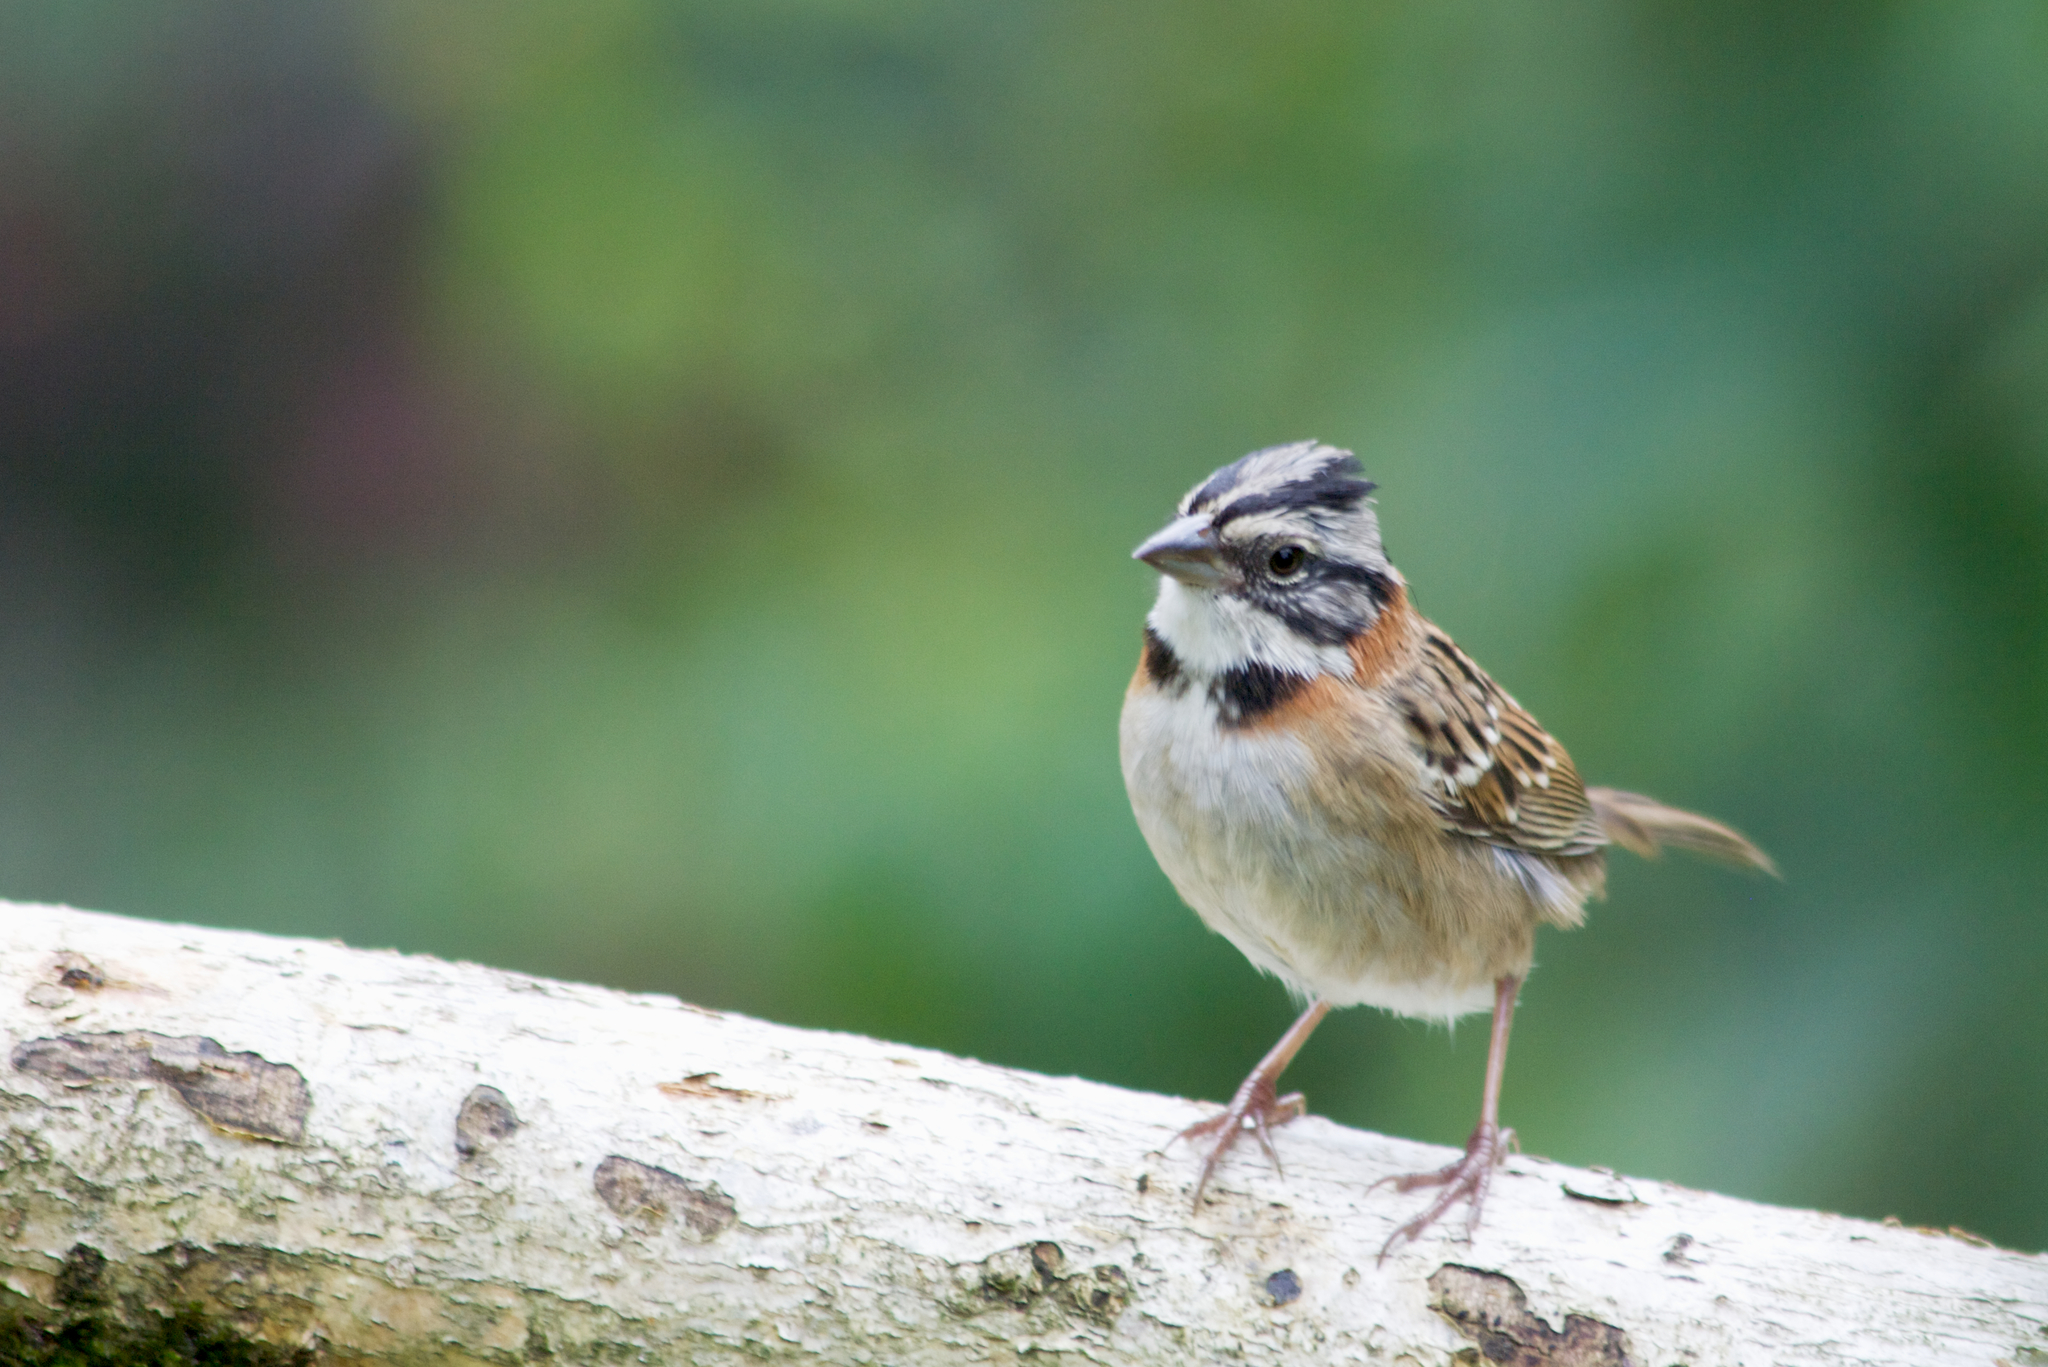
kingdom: Animalia
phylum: Chordata
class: Aves
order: Passeriformes
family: Passerellidae
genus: Zonotrichia
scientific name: Zonotrichia capensis
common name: Rufous-collared sparrow
